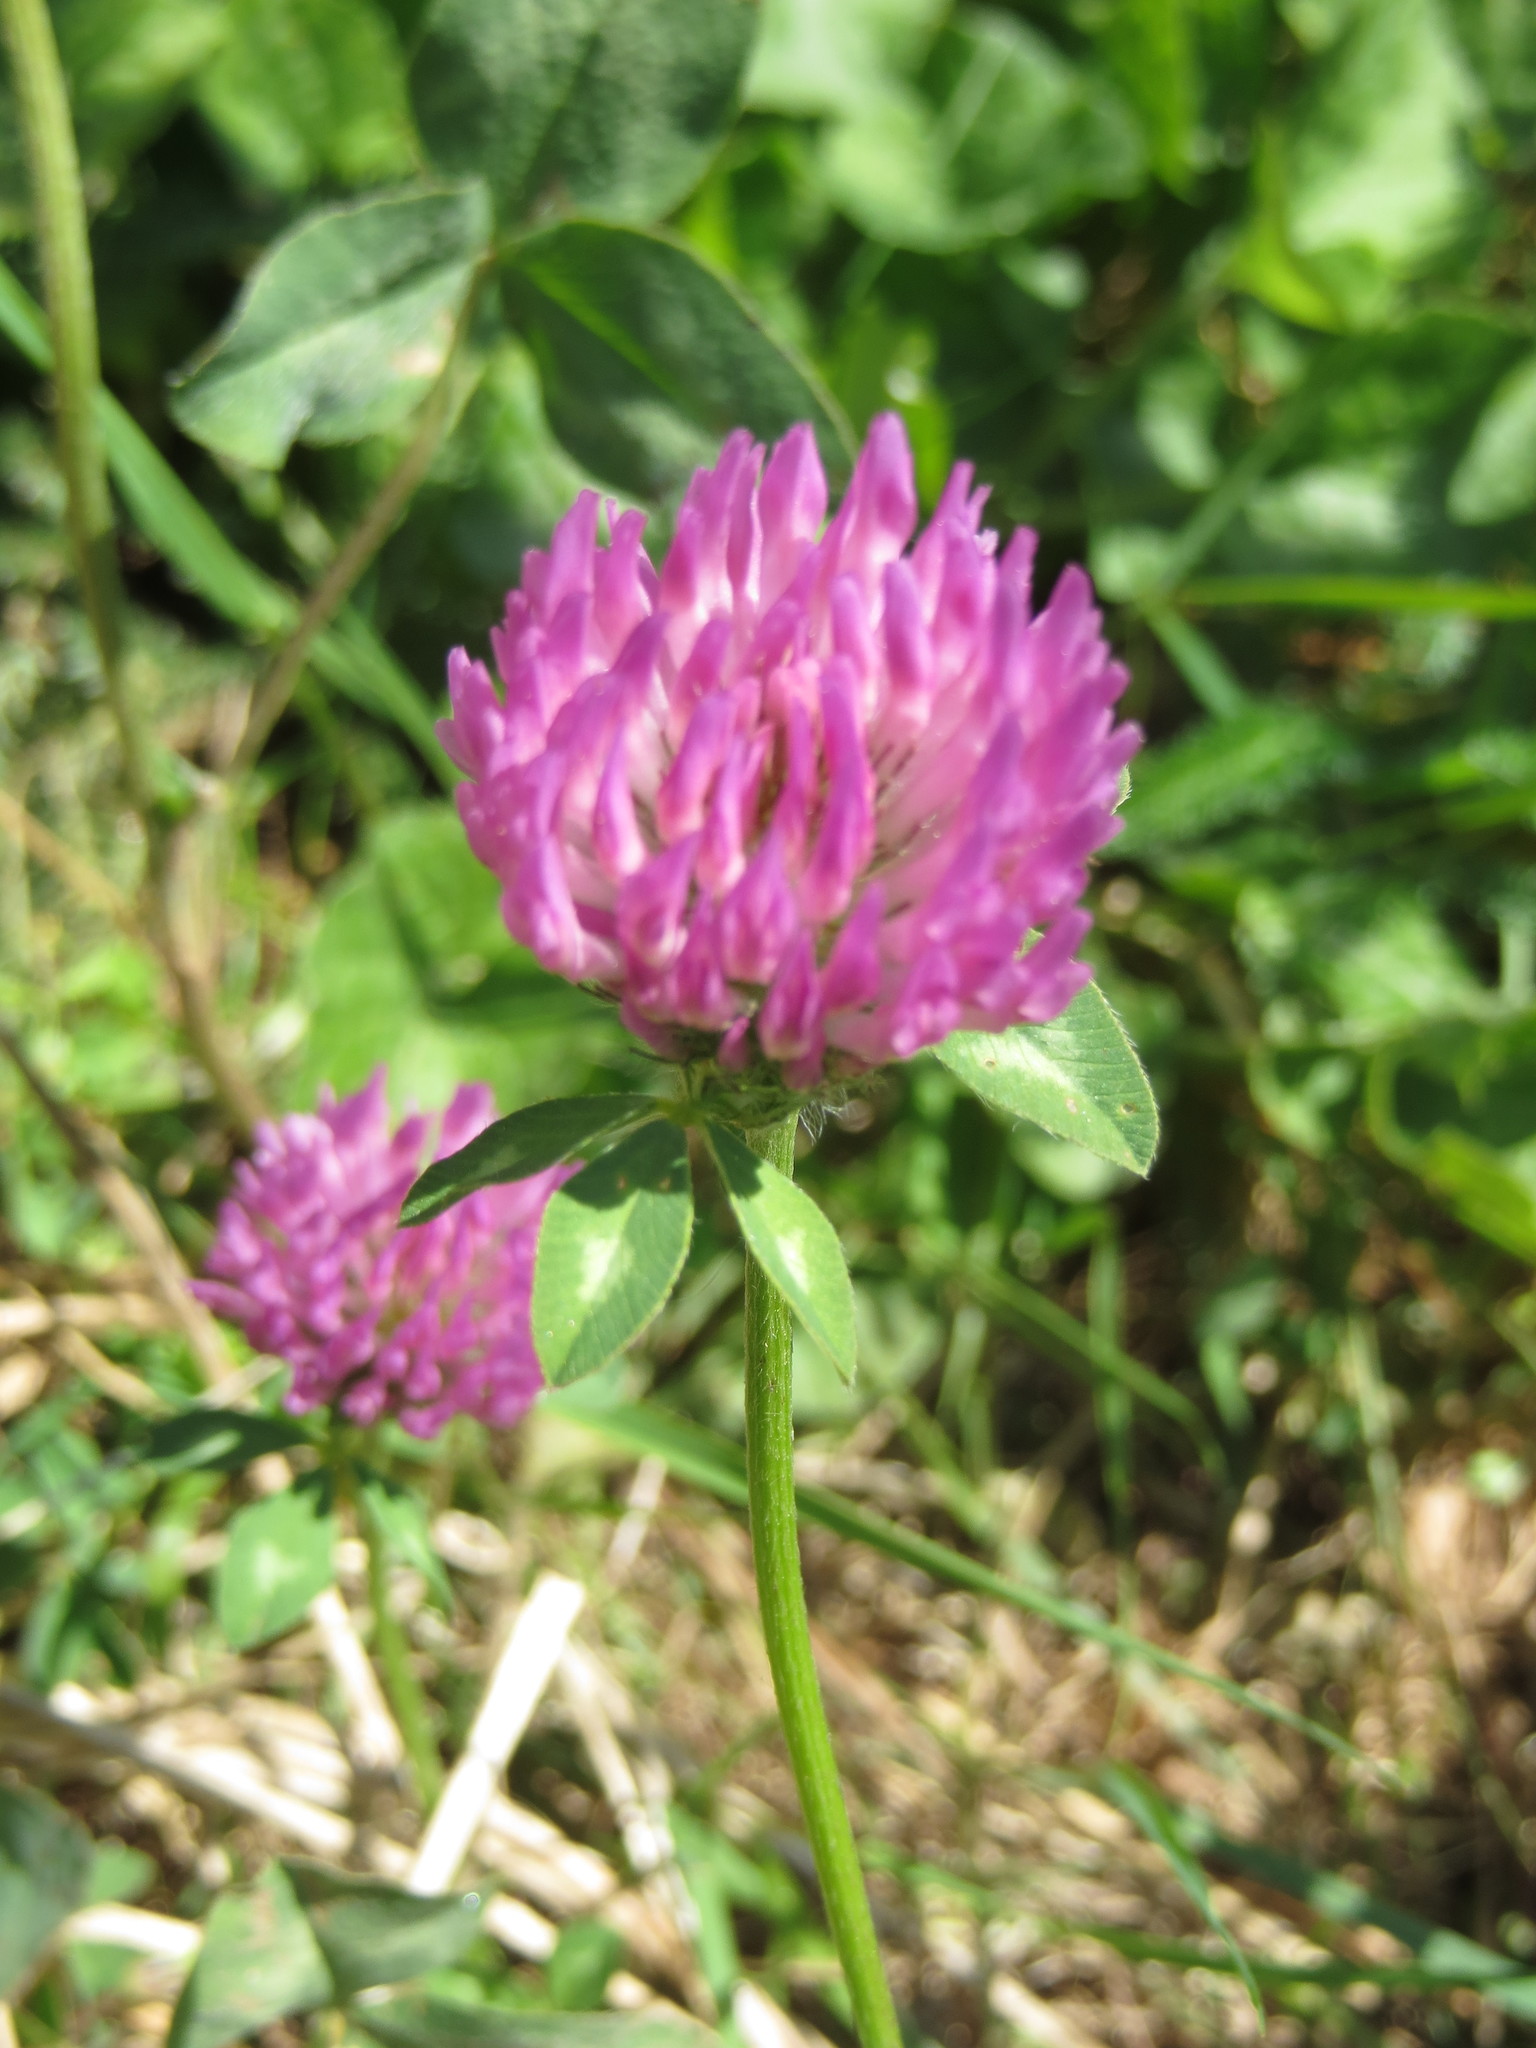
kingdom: Plantae
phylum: Tracheophyta
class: Magnoliopsida
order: Fabales
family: Fabaceae
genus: Trifolium
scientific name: Trifolium pratense
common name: Red clover
